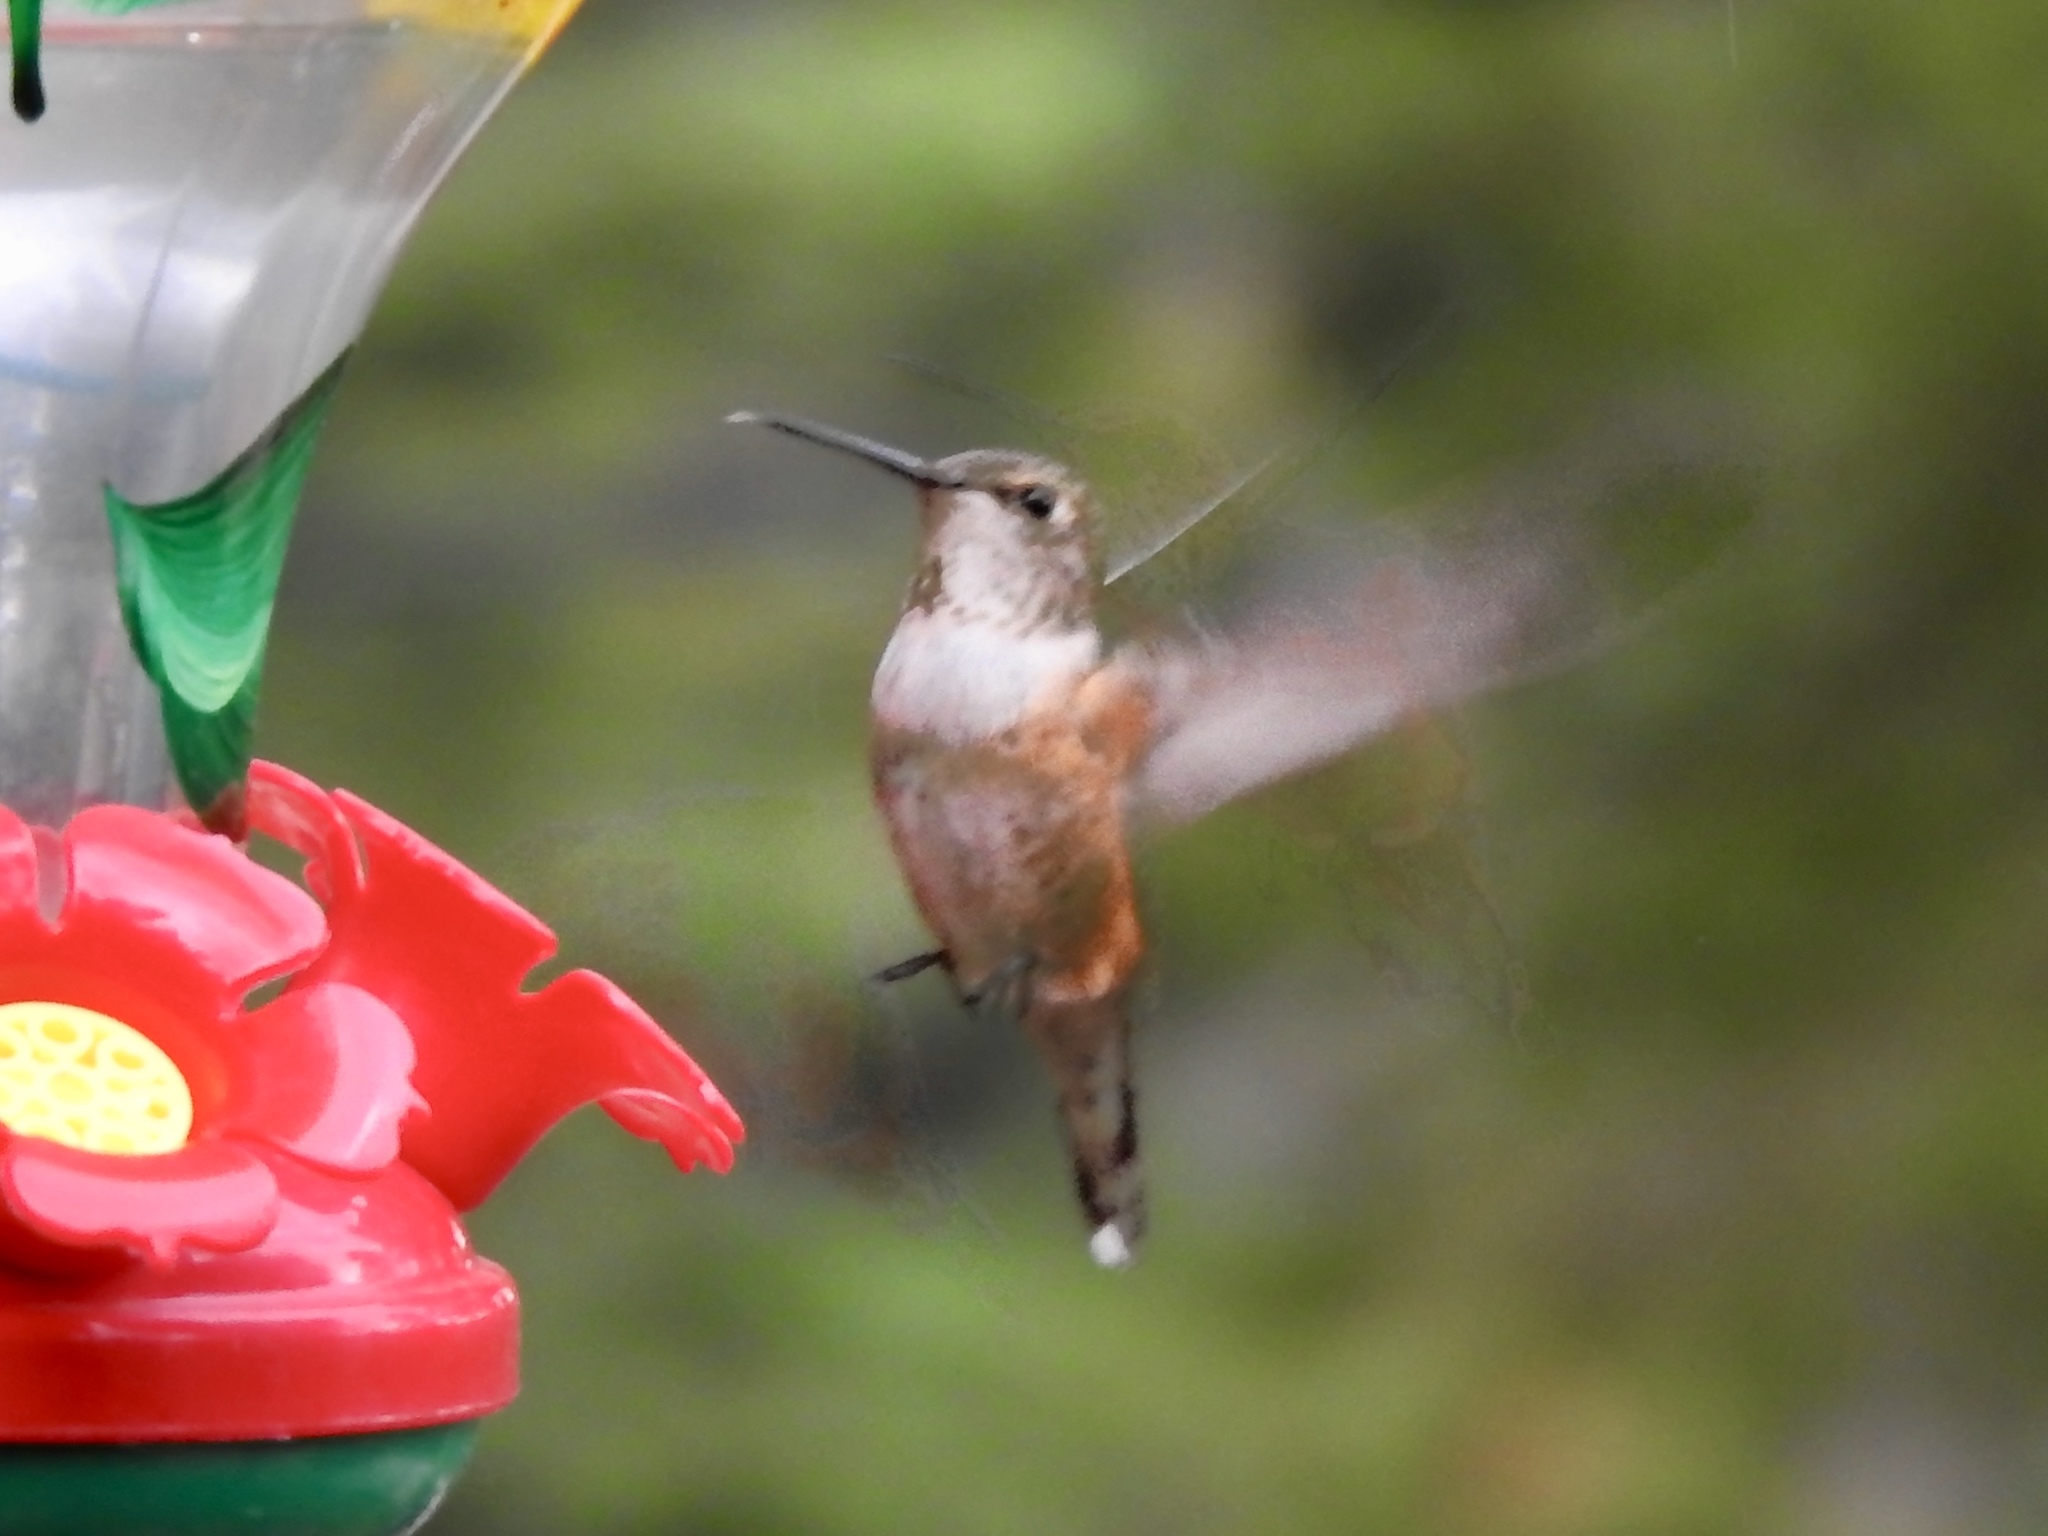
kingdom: Animalia
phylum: Chordata
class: Aves
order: Apodiformes
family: Trochilidae
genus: Selasphorus
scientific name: Selasphorus rufus
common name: Rufous hummingbird
